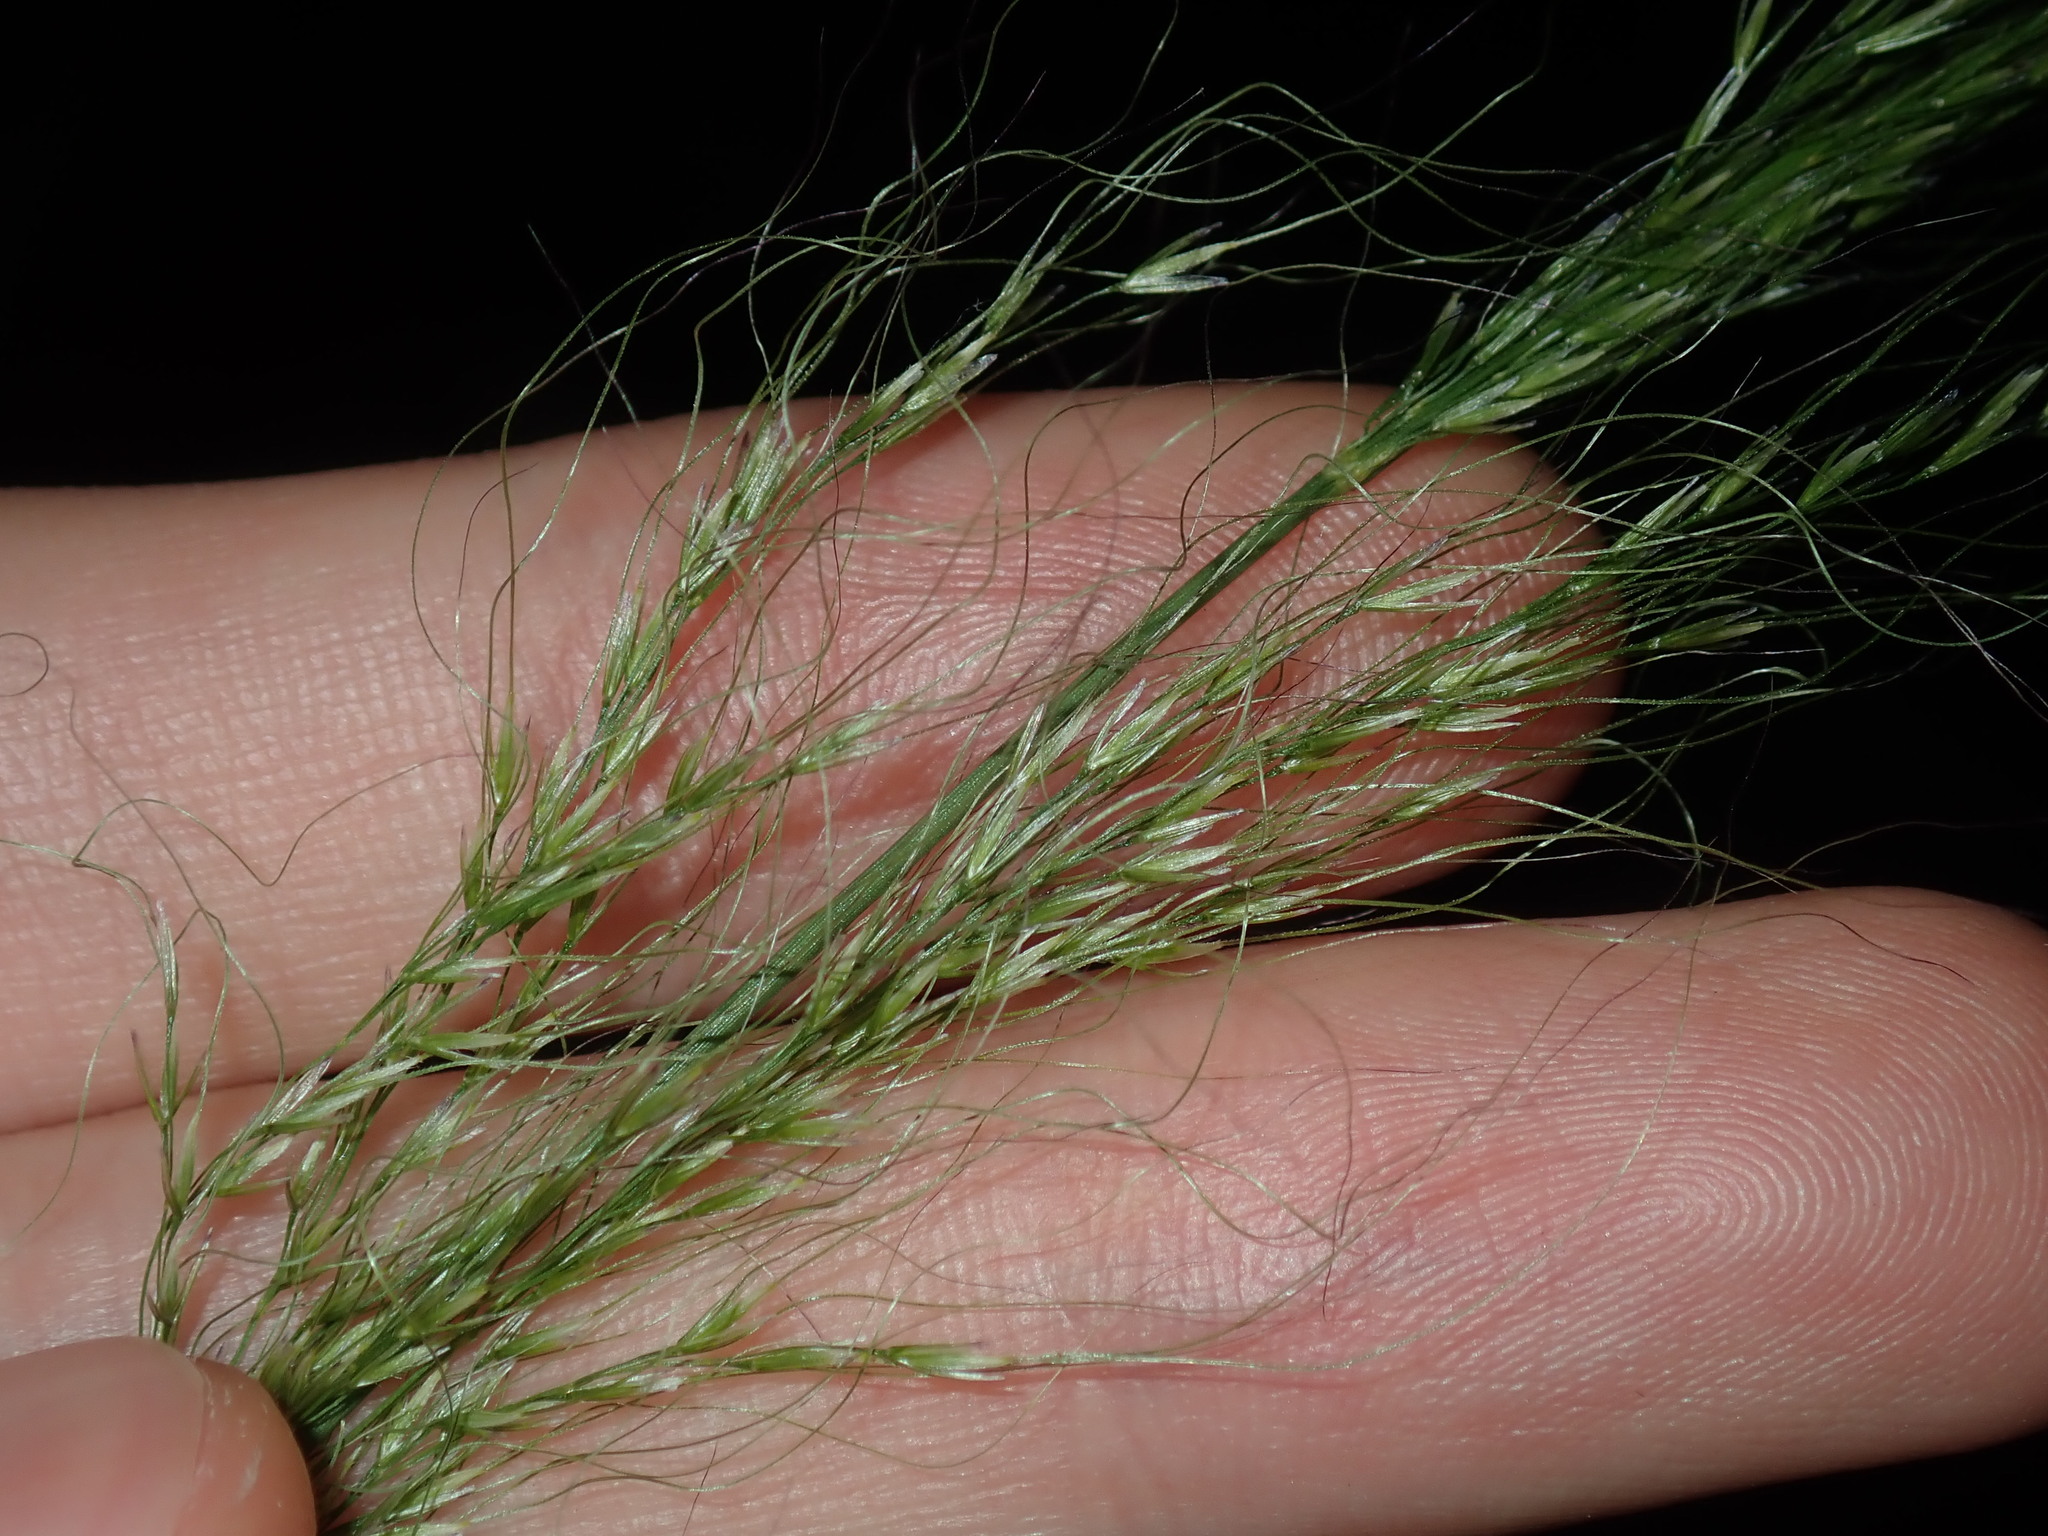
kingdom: Plantae
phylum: Tracheophyta
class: Liliopsida
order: Poales
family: Poaceae
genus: Austrostipa
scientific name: Austrostipa verticillata
